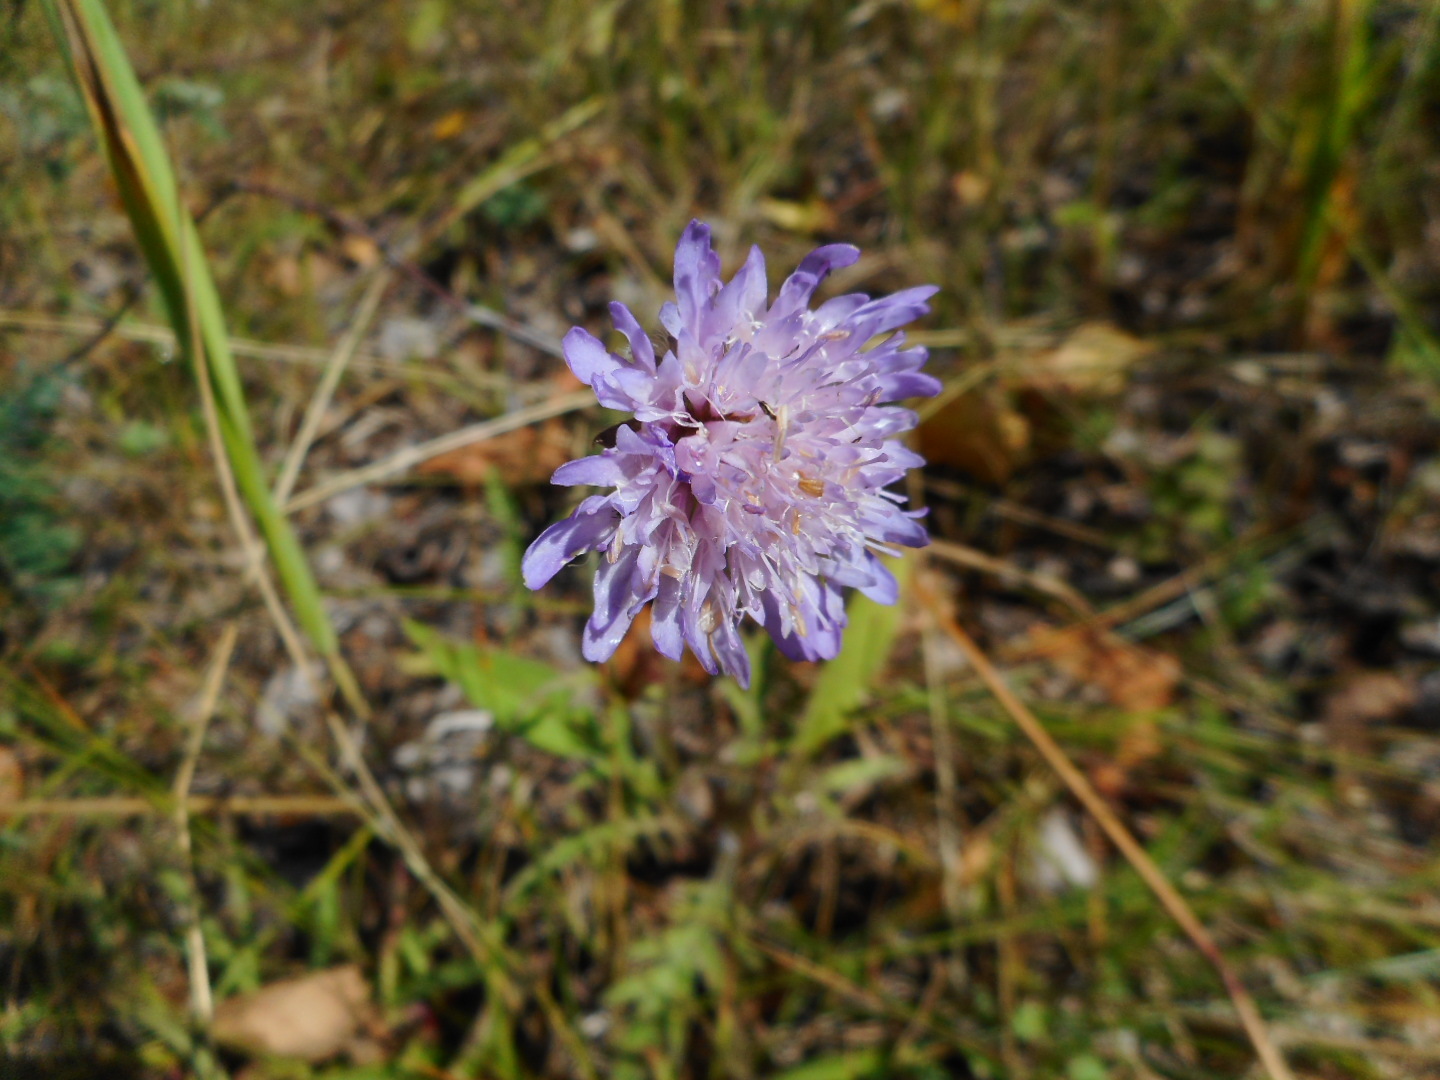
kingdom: Plantae
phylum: Tracheophyta
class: Magnoliopsida
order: Dipsacales
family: Caprifoliaceae
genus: Knautia
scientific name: Knautia arvensis
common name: Field scabiosa
